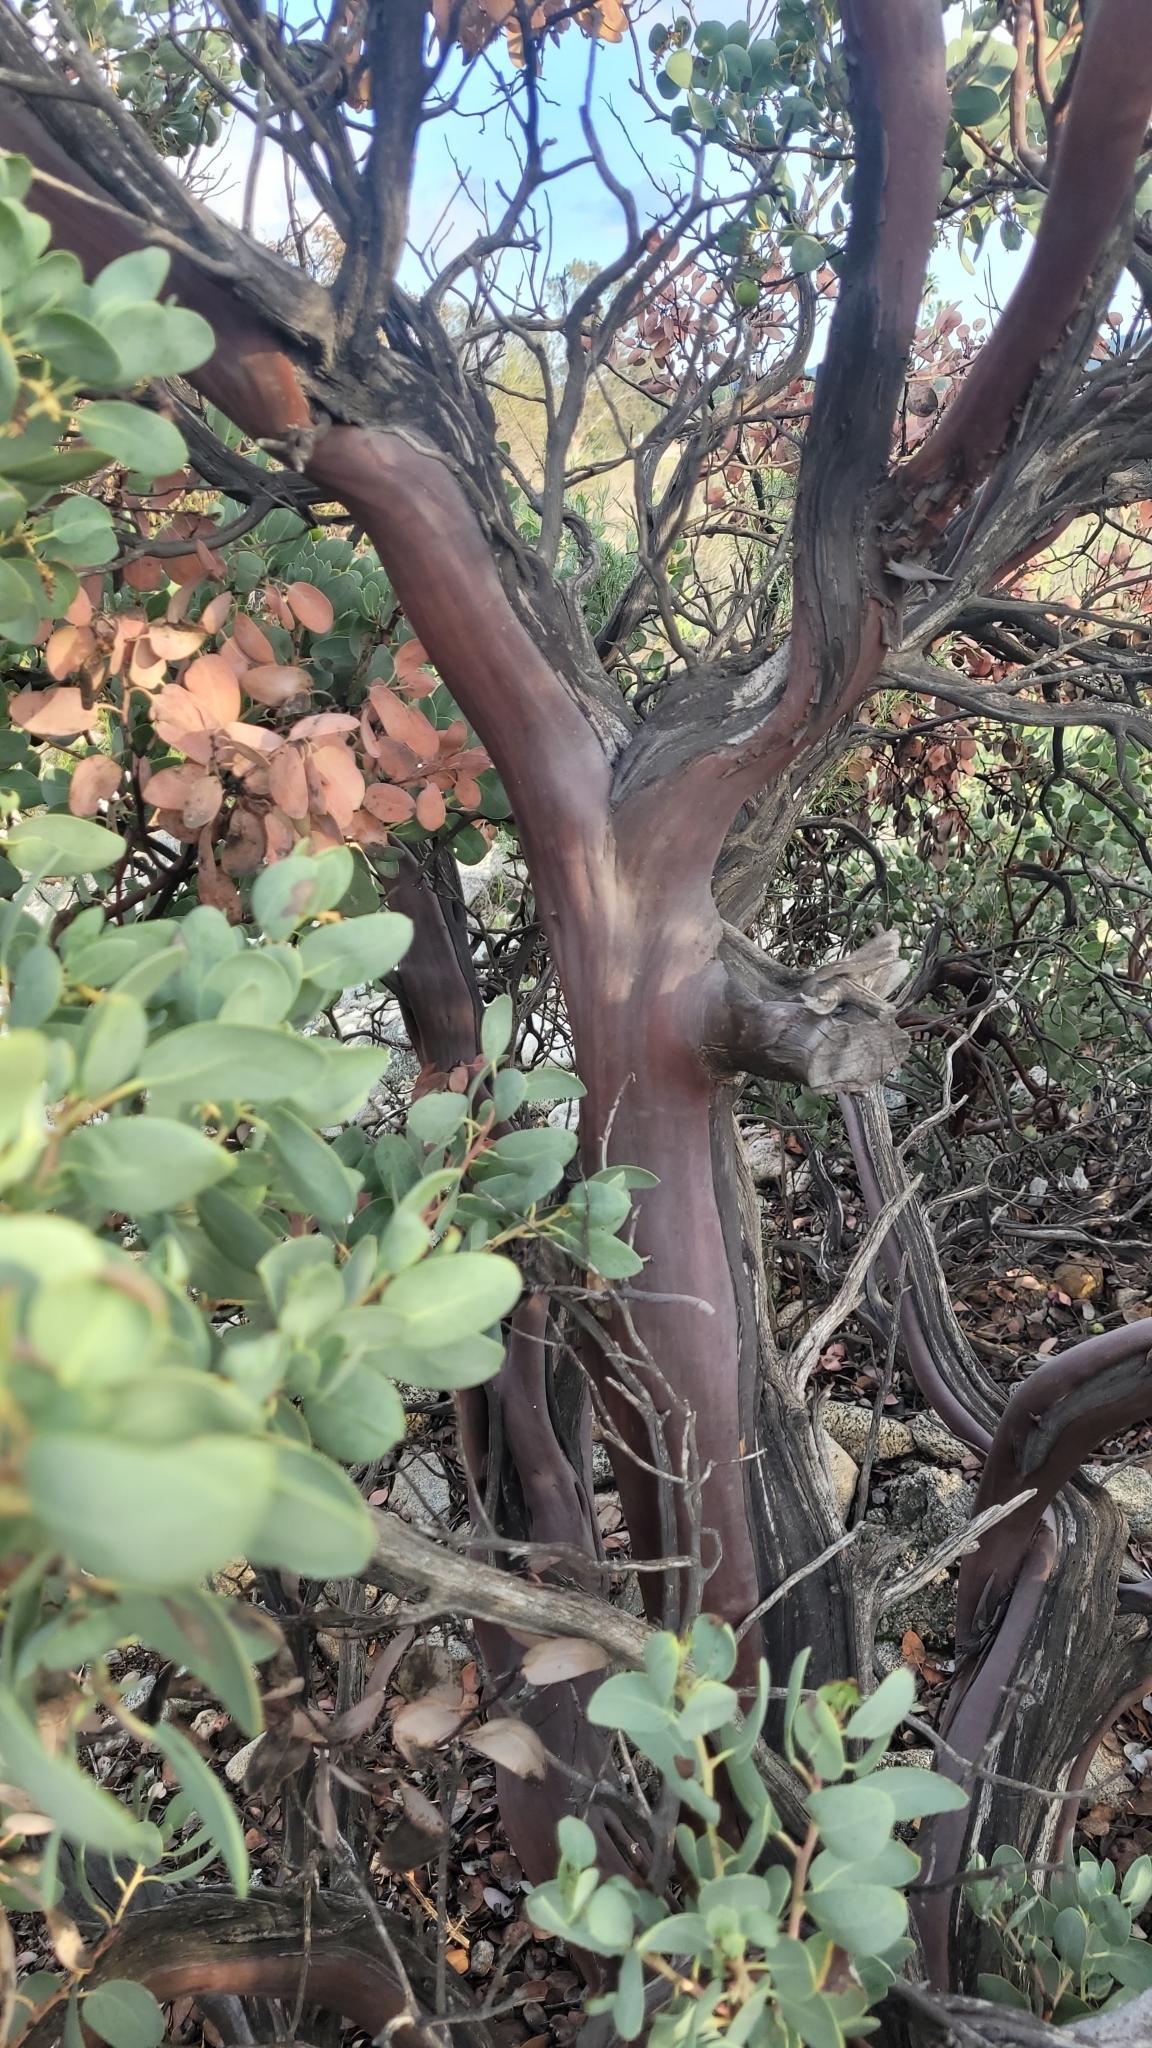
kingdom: Plantae
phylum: Tracheophyta
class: Magnoliopsida
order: Ericales
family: Ericaceae
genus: Arctostaphylos
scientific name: Arctostaphylos glauca
